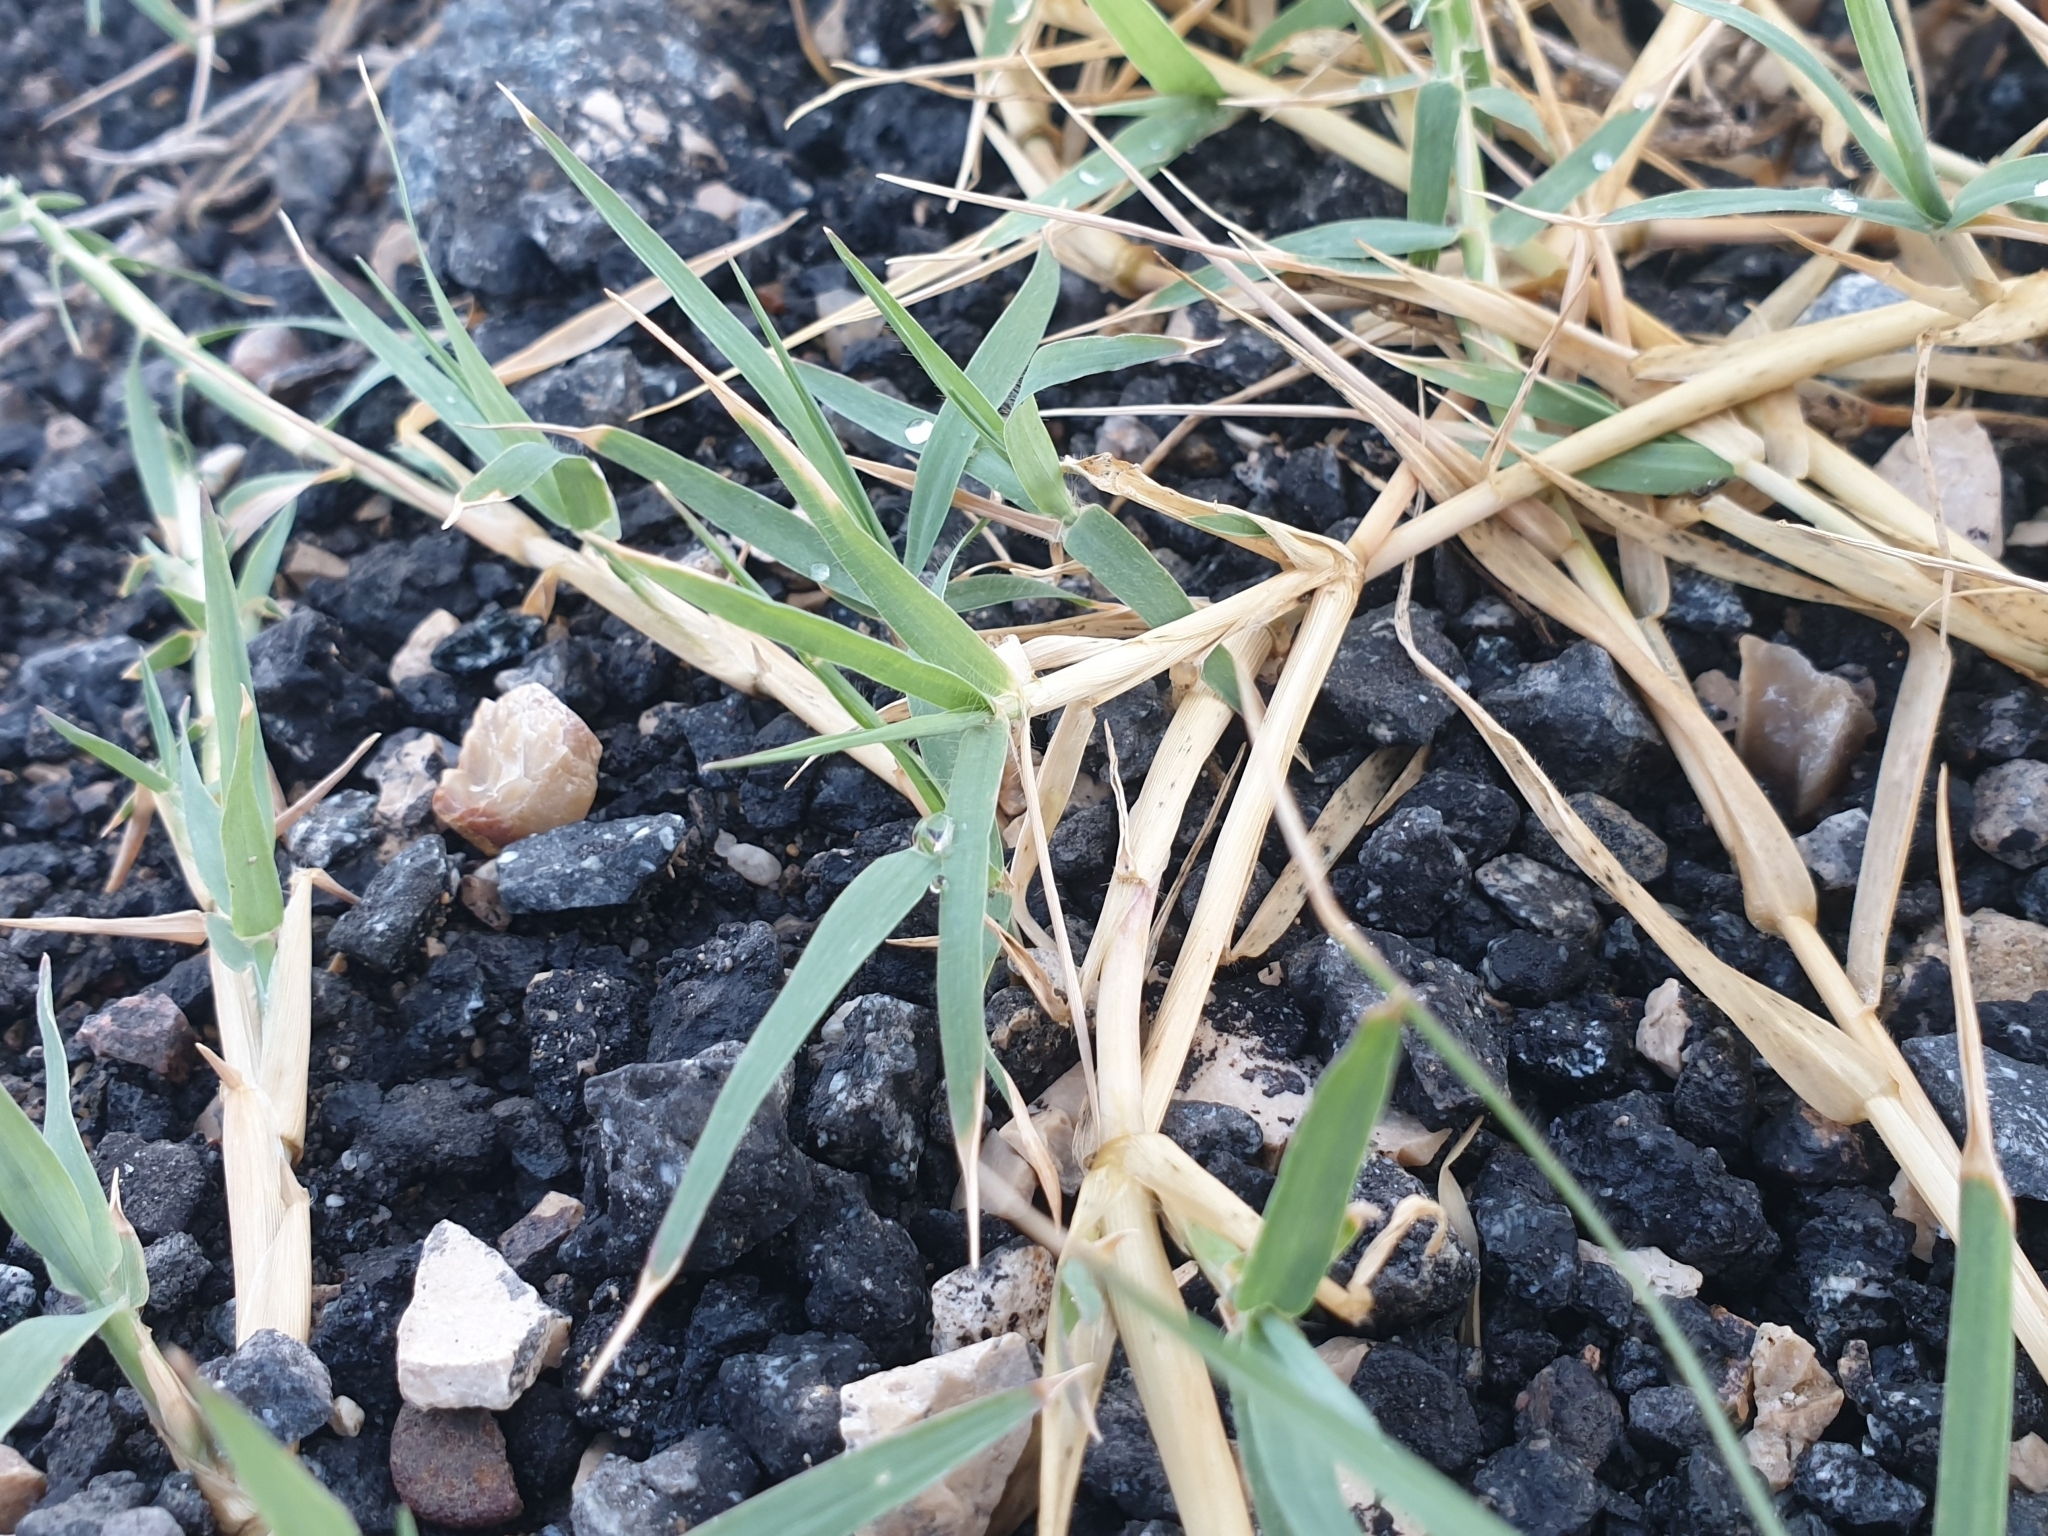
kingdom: Plantae
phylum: Tracheophyta
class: Liliopsida
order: Poales
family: Poaceae
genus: Cynodon
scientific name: Cynodon dactylon
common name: Bermuda grass
